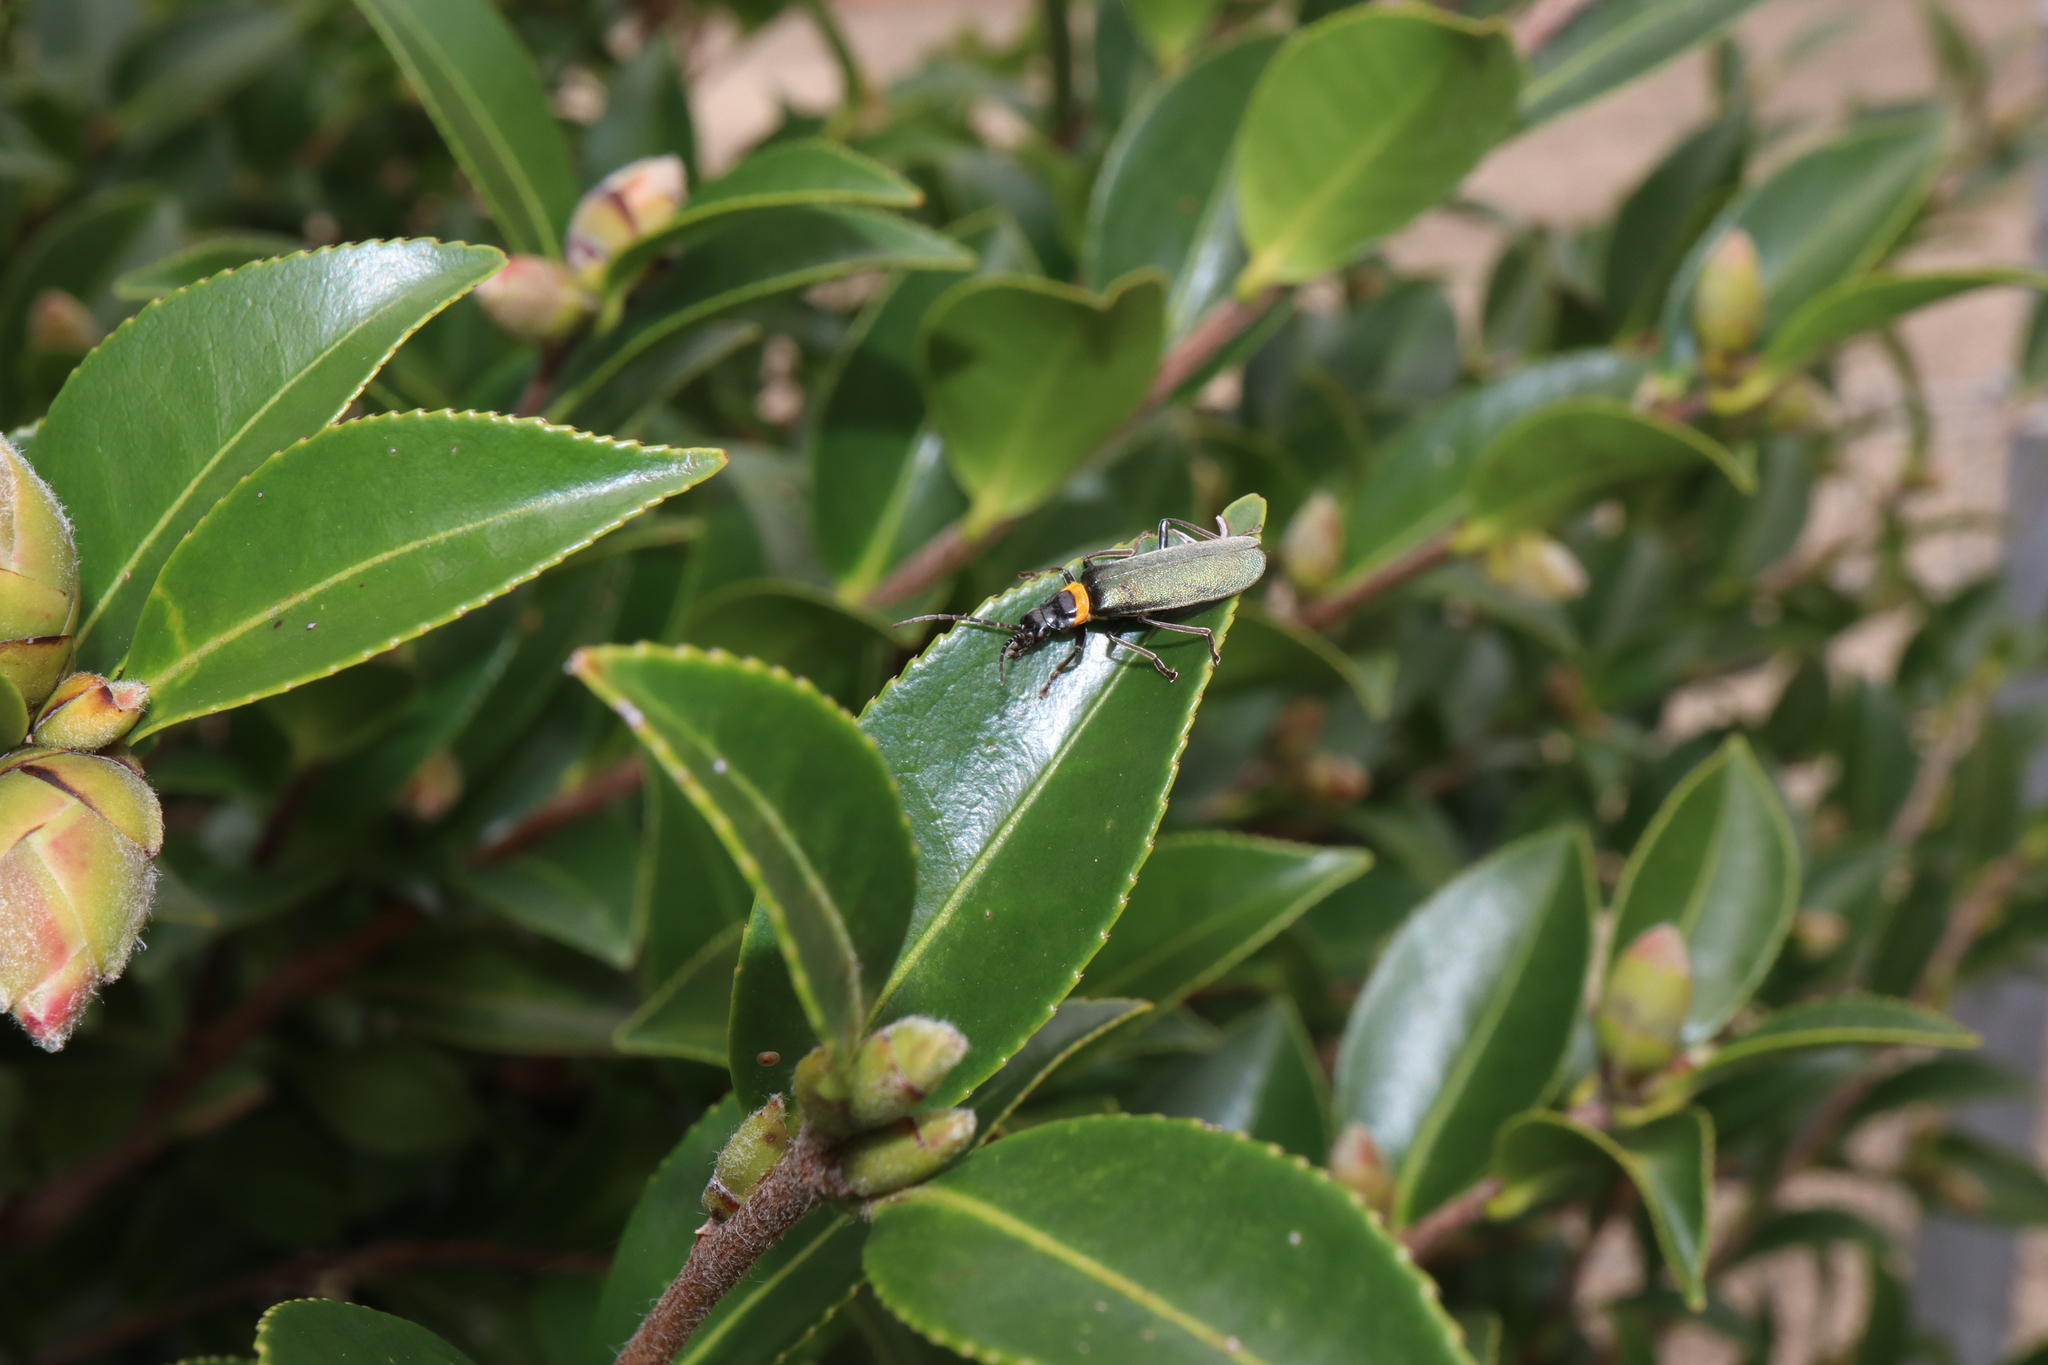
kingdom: Animalia
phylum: Arthropoda
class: Insecta
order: Coleoptera
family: Cantharidae
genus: Chauliognathus
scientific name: Chauliognathus
